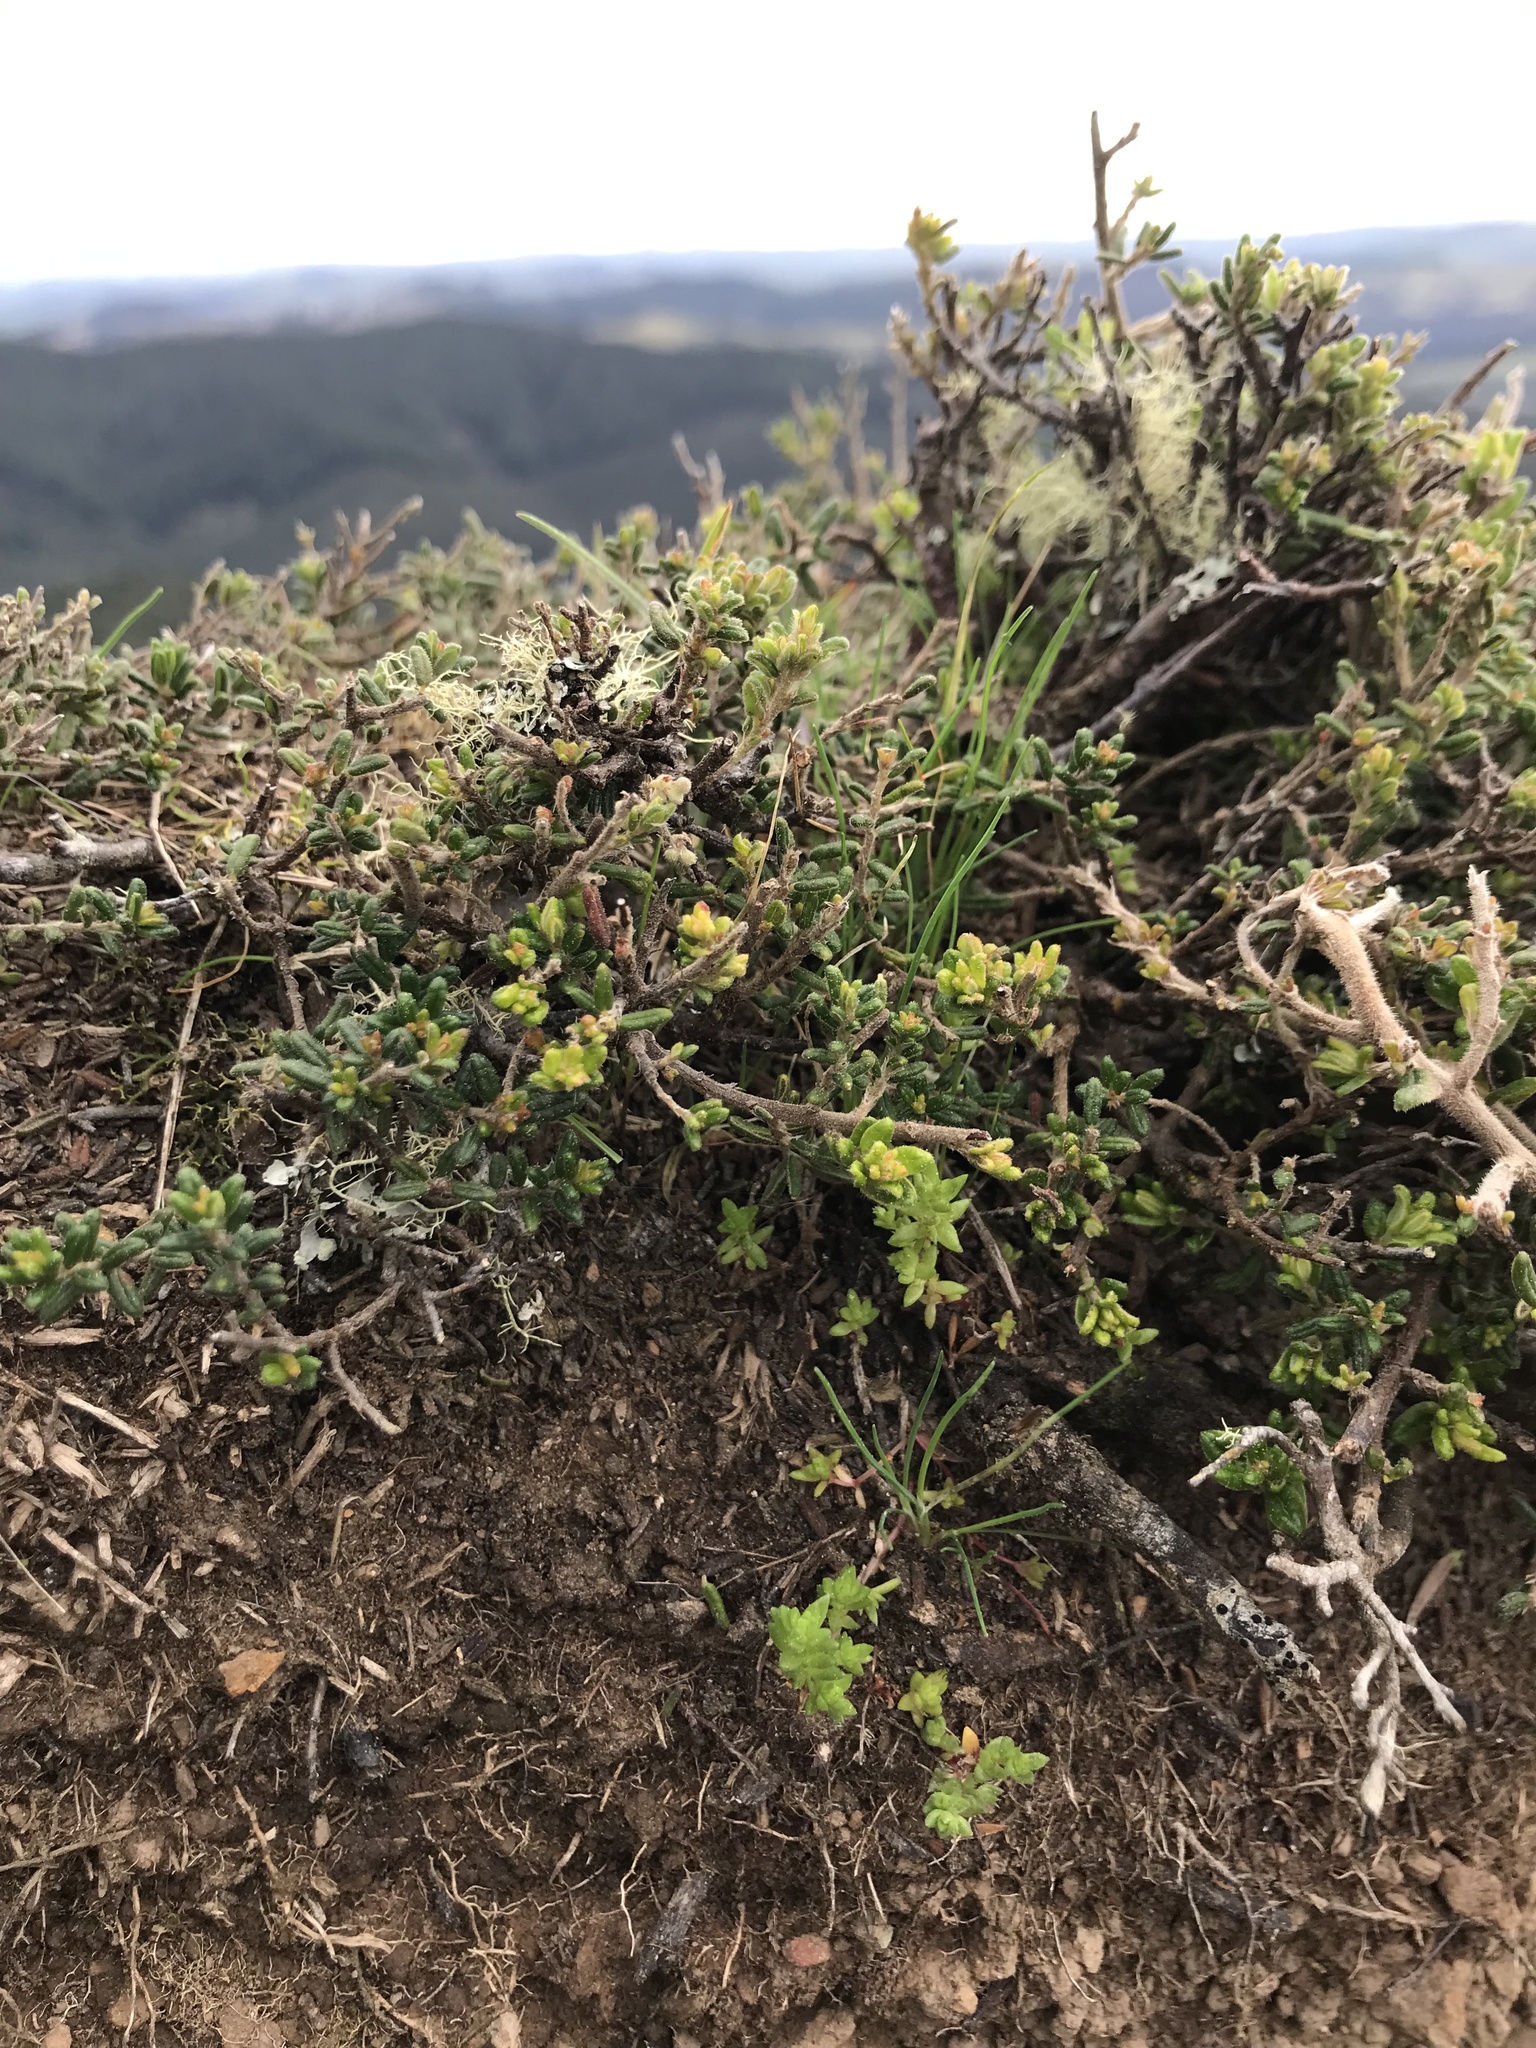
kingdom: Plantae
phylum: Tracheophyta
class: Magnoliopsida
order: Rosales
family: Rhamnaceae
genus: Pomaderris
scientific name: Pomaderris amoena
